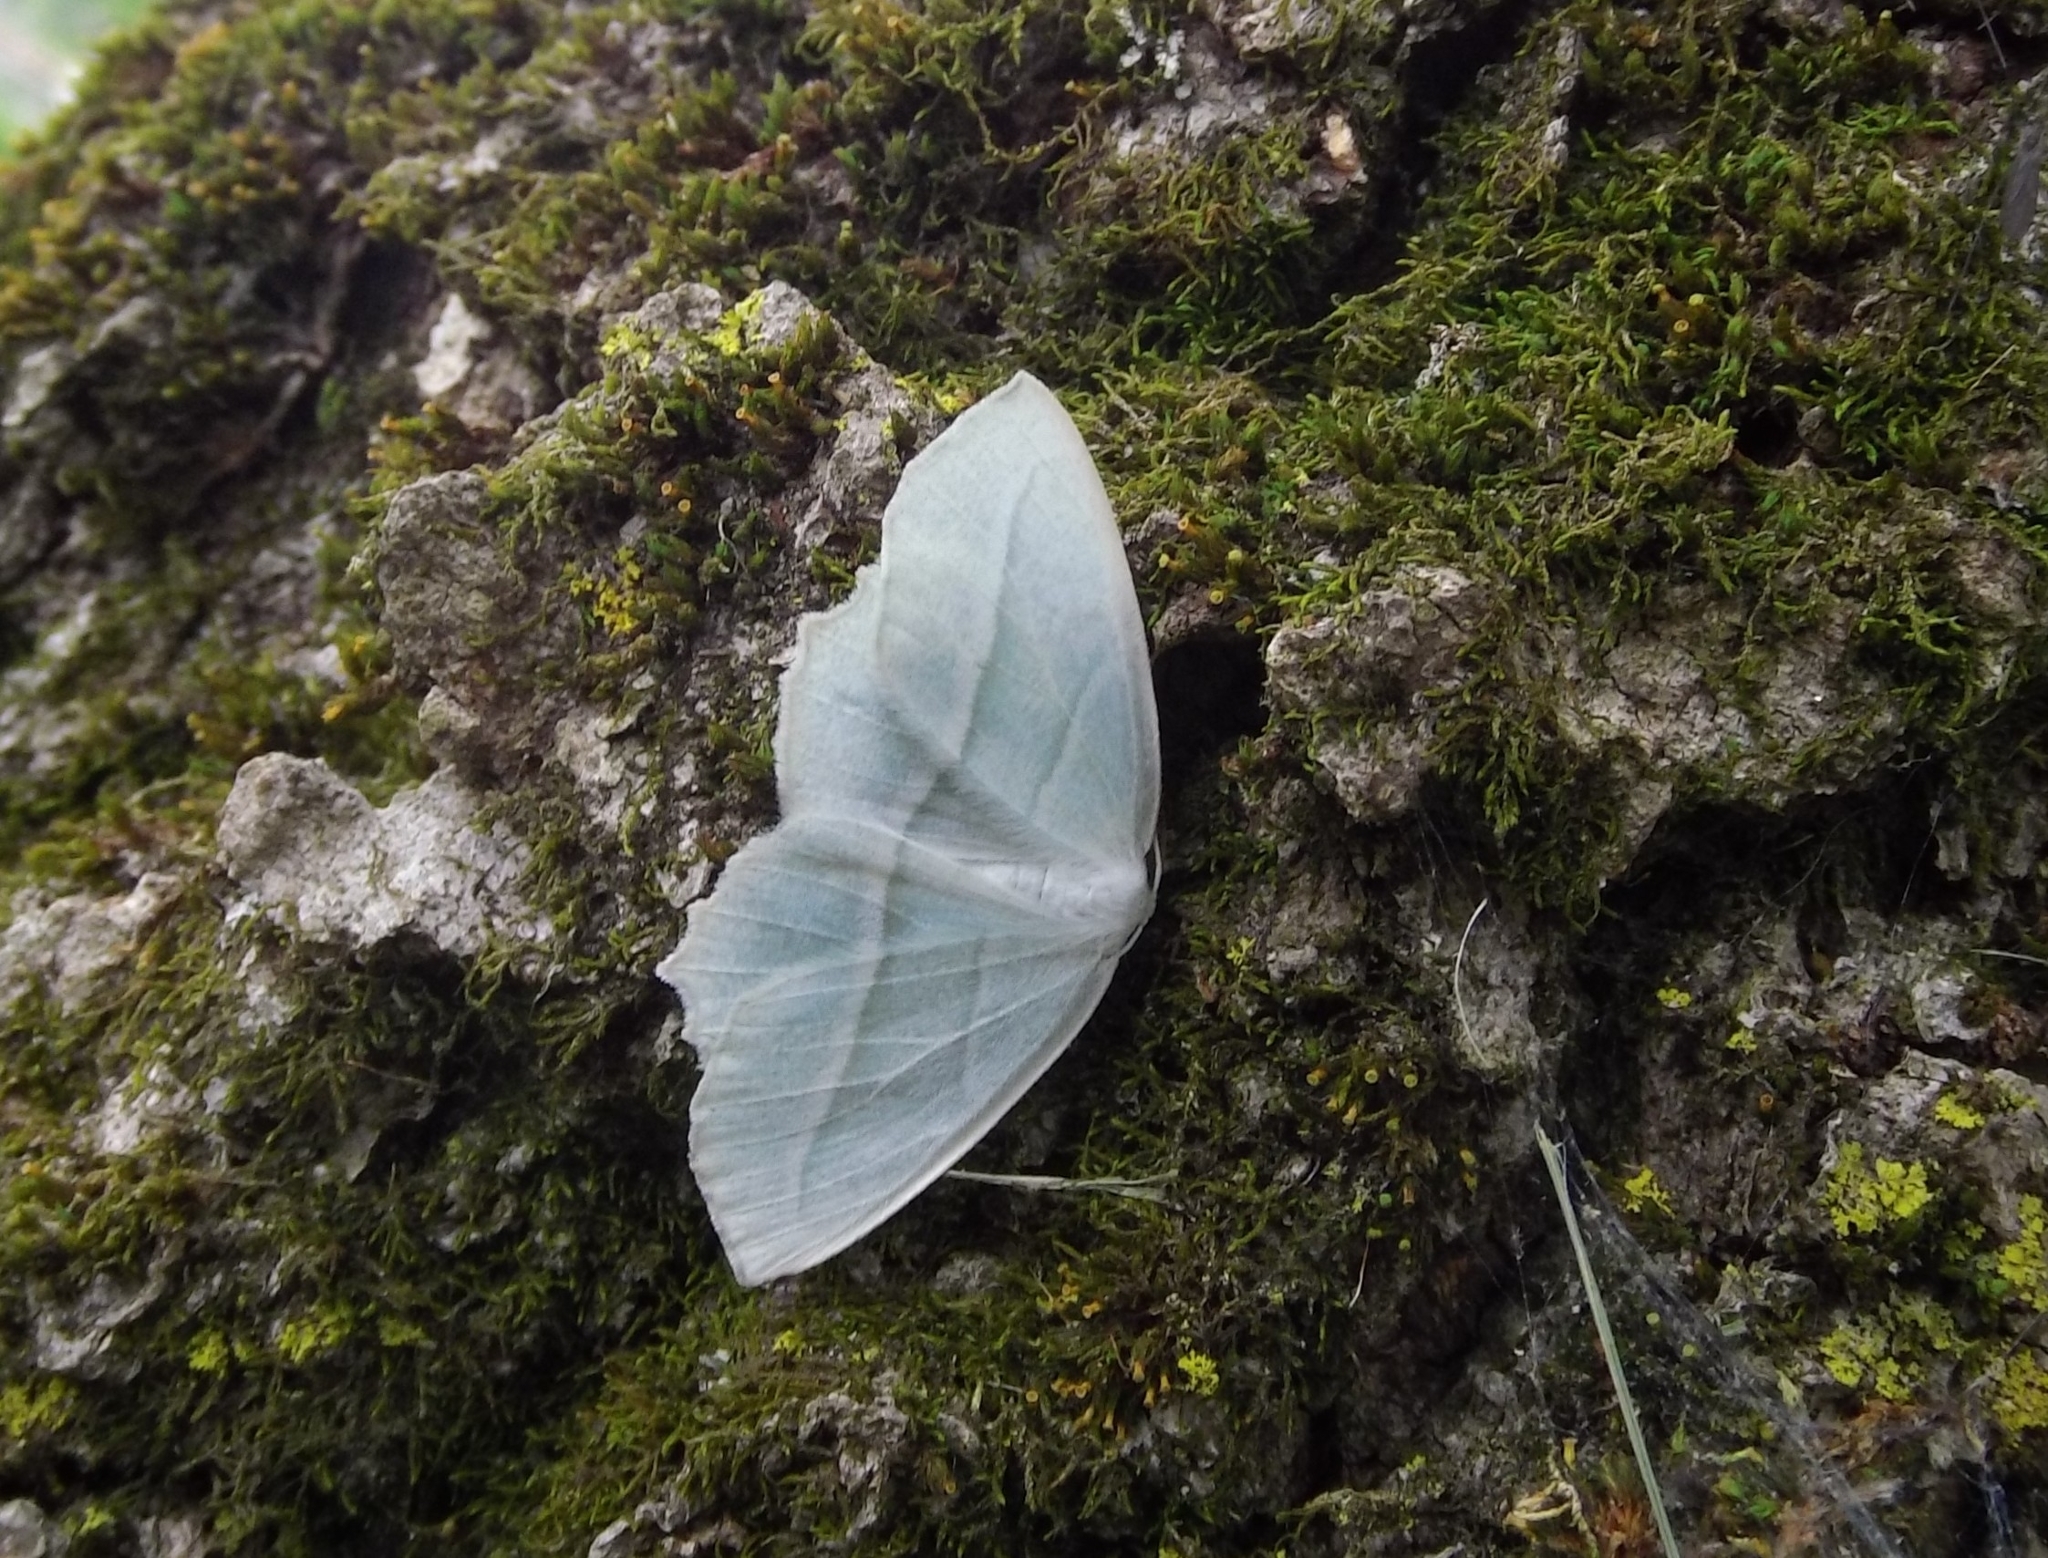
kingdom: Animalia
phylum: Arthropoda
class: Insecta
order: Lepidoptera
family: Geometridae
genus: Campaea
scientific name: Campaea perlata
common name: Fringed looper
